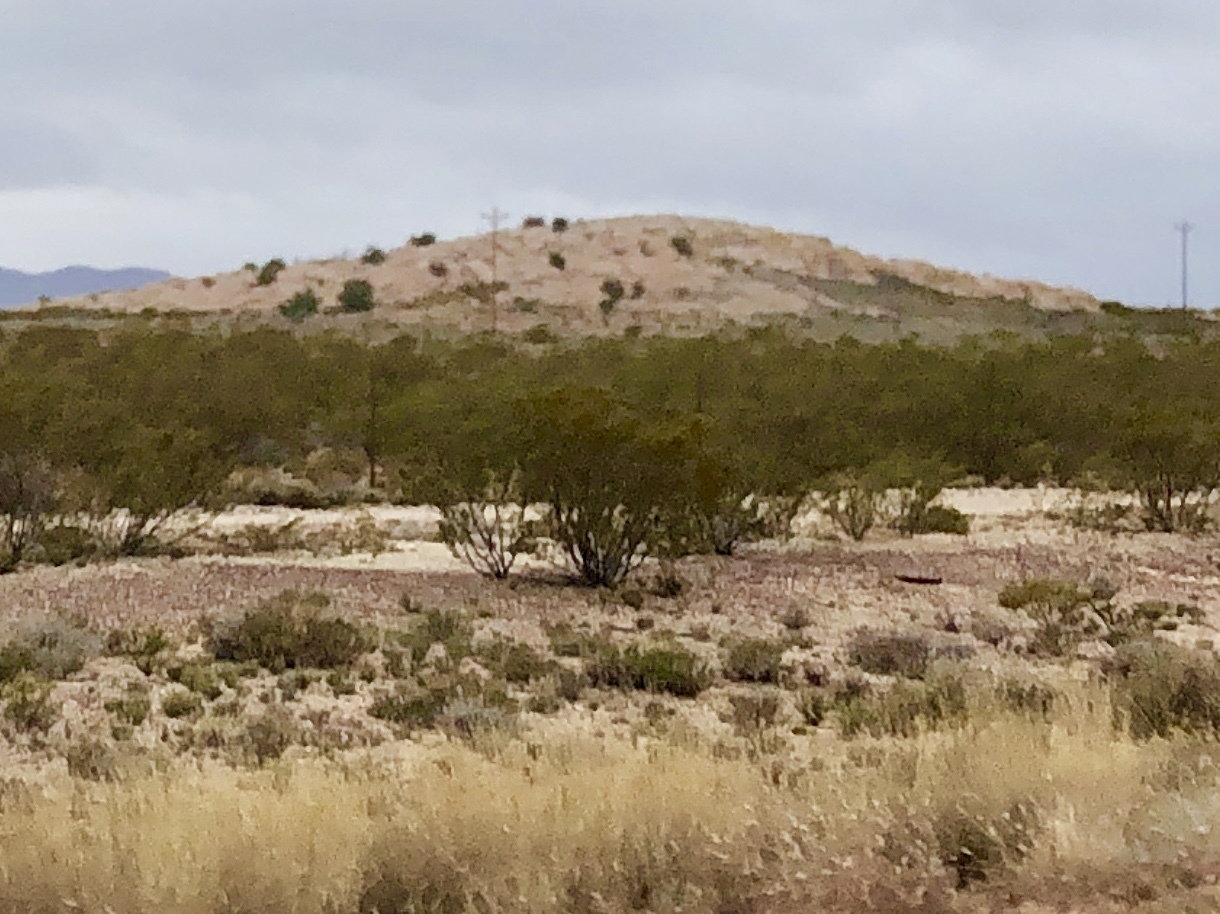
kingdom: Plantae
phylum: Tracheophyta
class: Magnoliopsida
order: Zygophyllales
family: Zygophyllaceae
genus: Larrea
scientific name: Larrea tridentata
